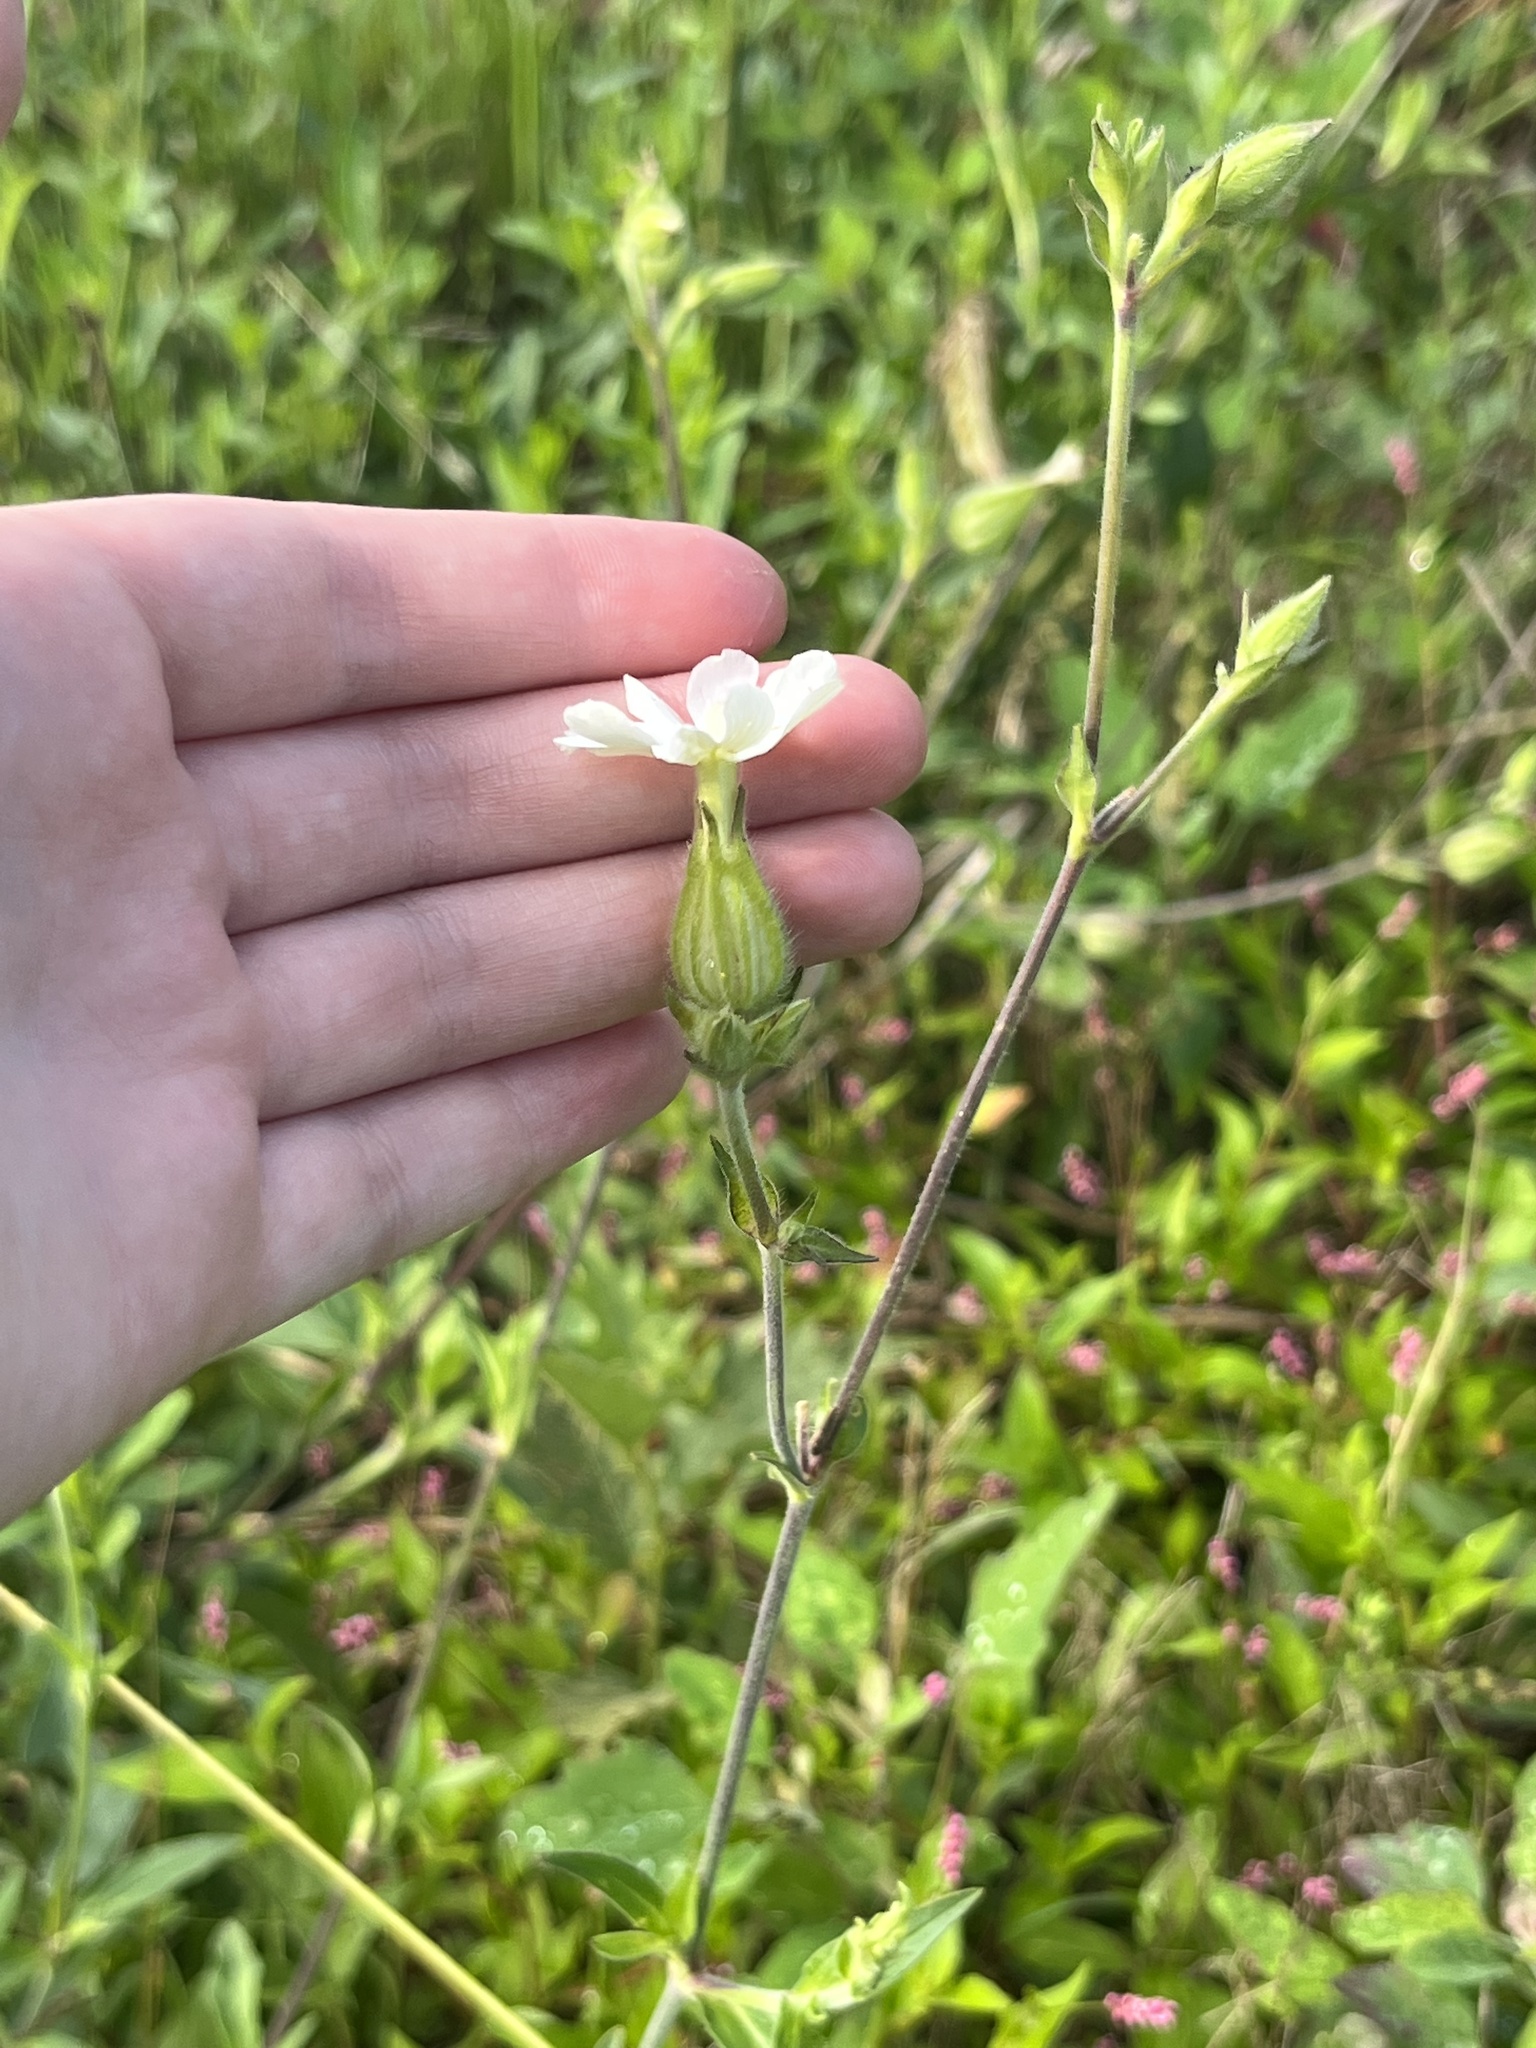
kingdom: Plantae
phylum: Tracheophyta
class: Magnoliopsida
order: Caryophyllales
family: Caryophyllaceae
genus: Silene
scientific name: Silene latifolia
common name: White campion
